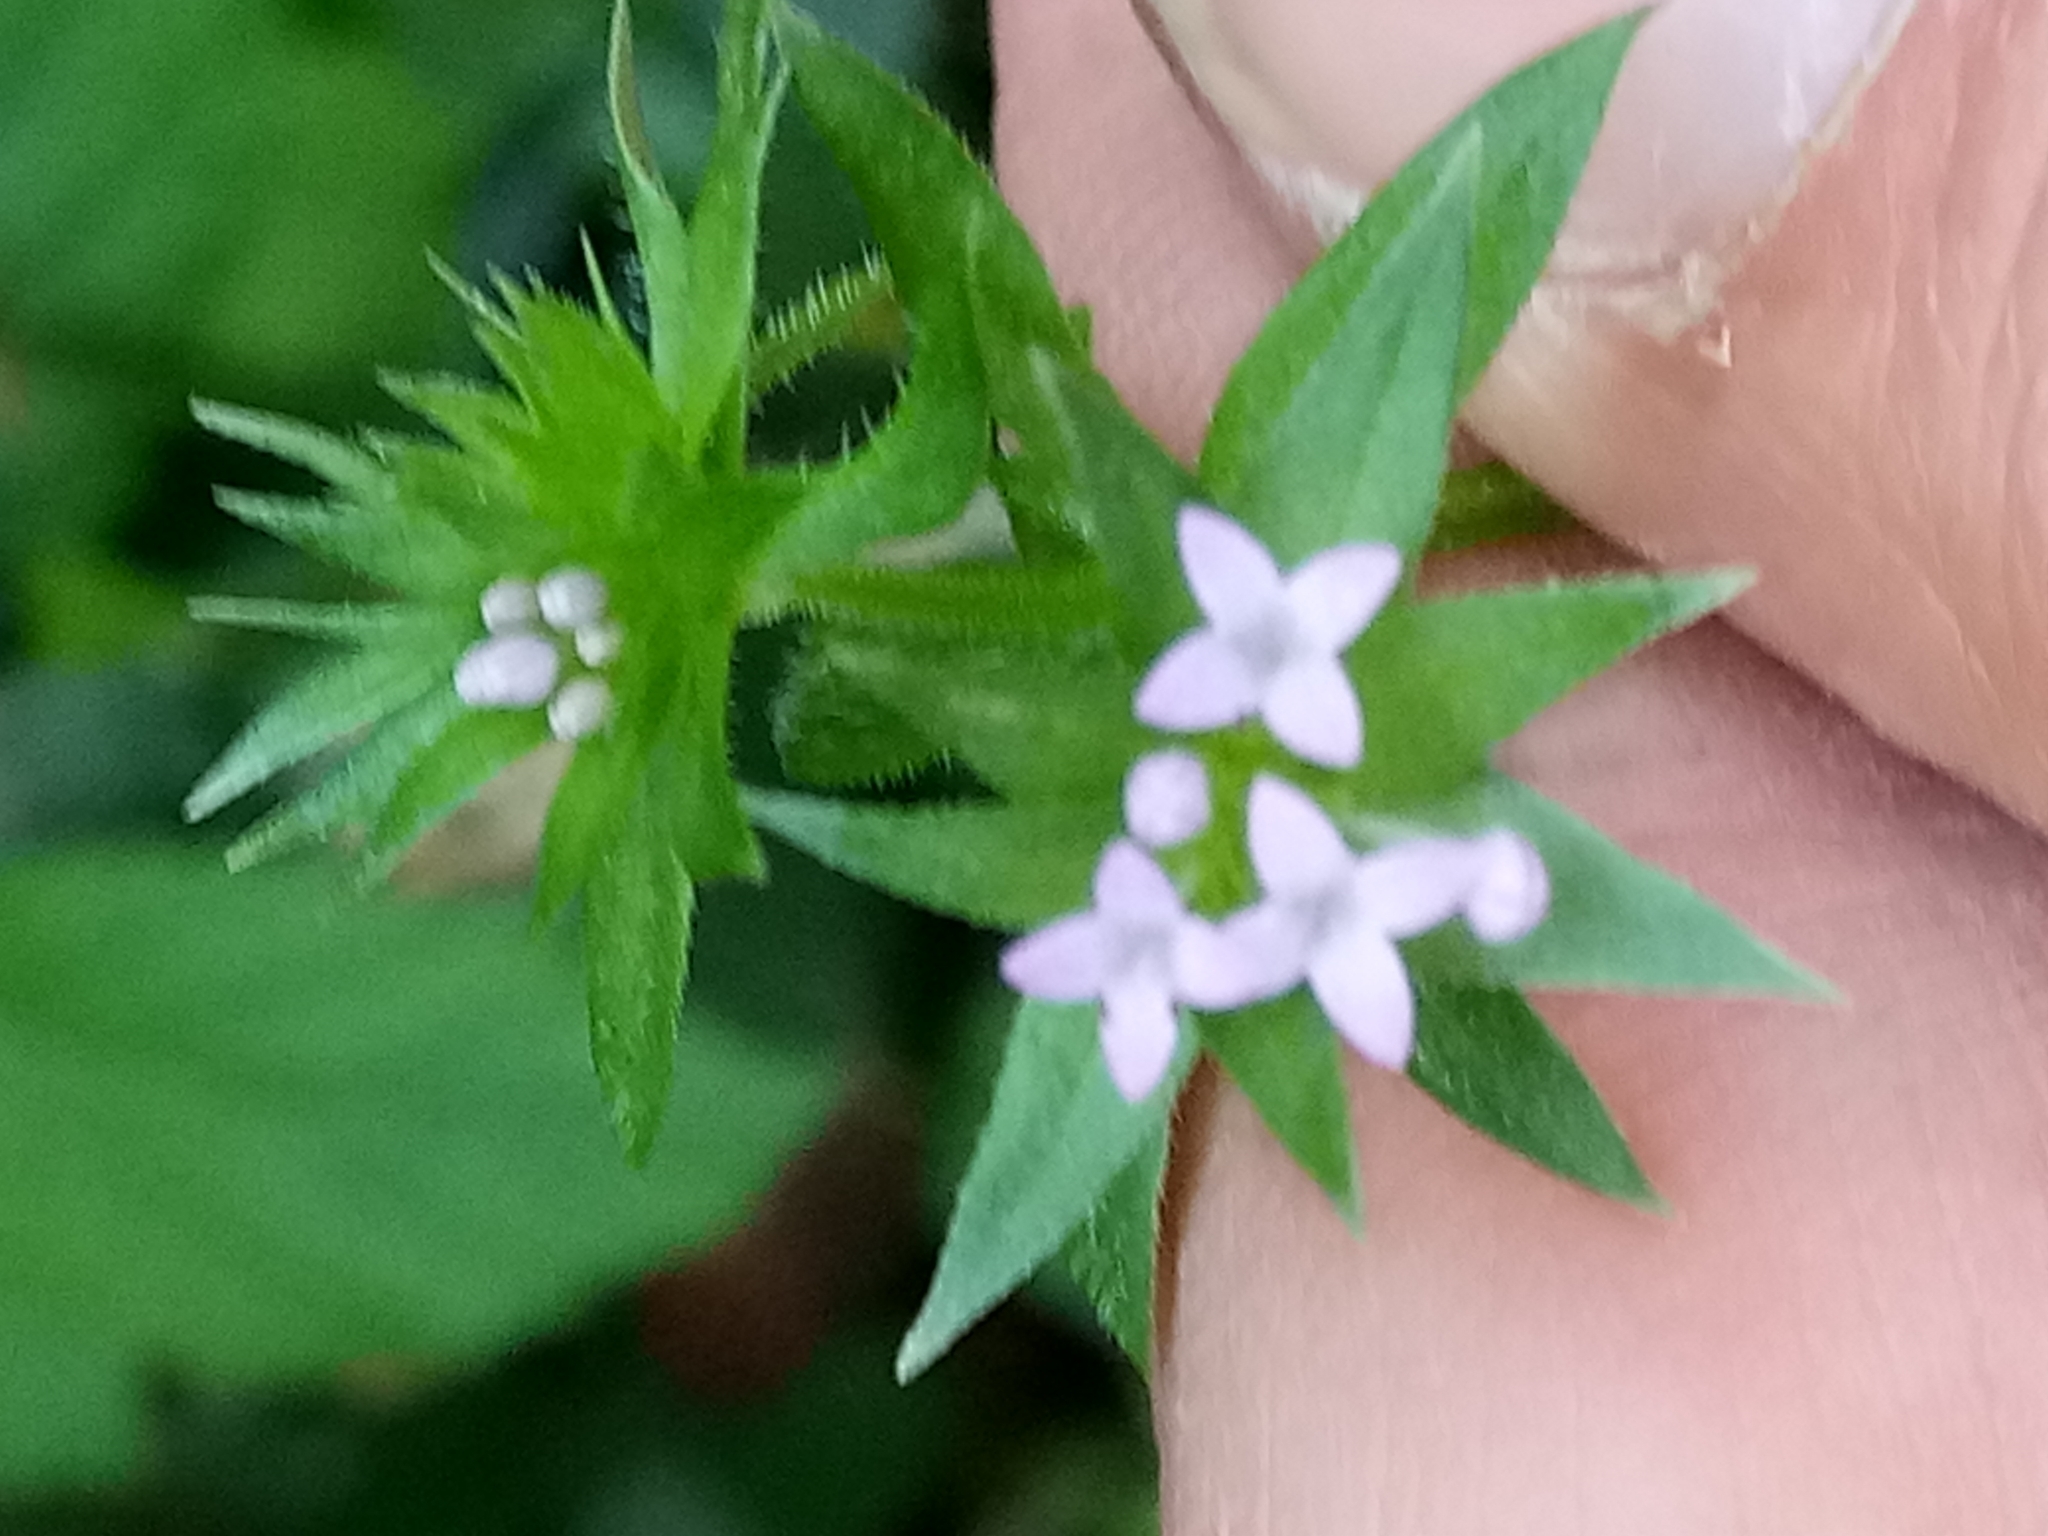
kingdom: Plantae
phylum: Tracheophyta
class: Magnoliopsida
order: Gentianales
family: Rubiaceae
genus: Sherardia
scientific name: Sherardia arvensis
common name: Field madder
